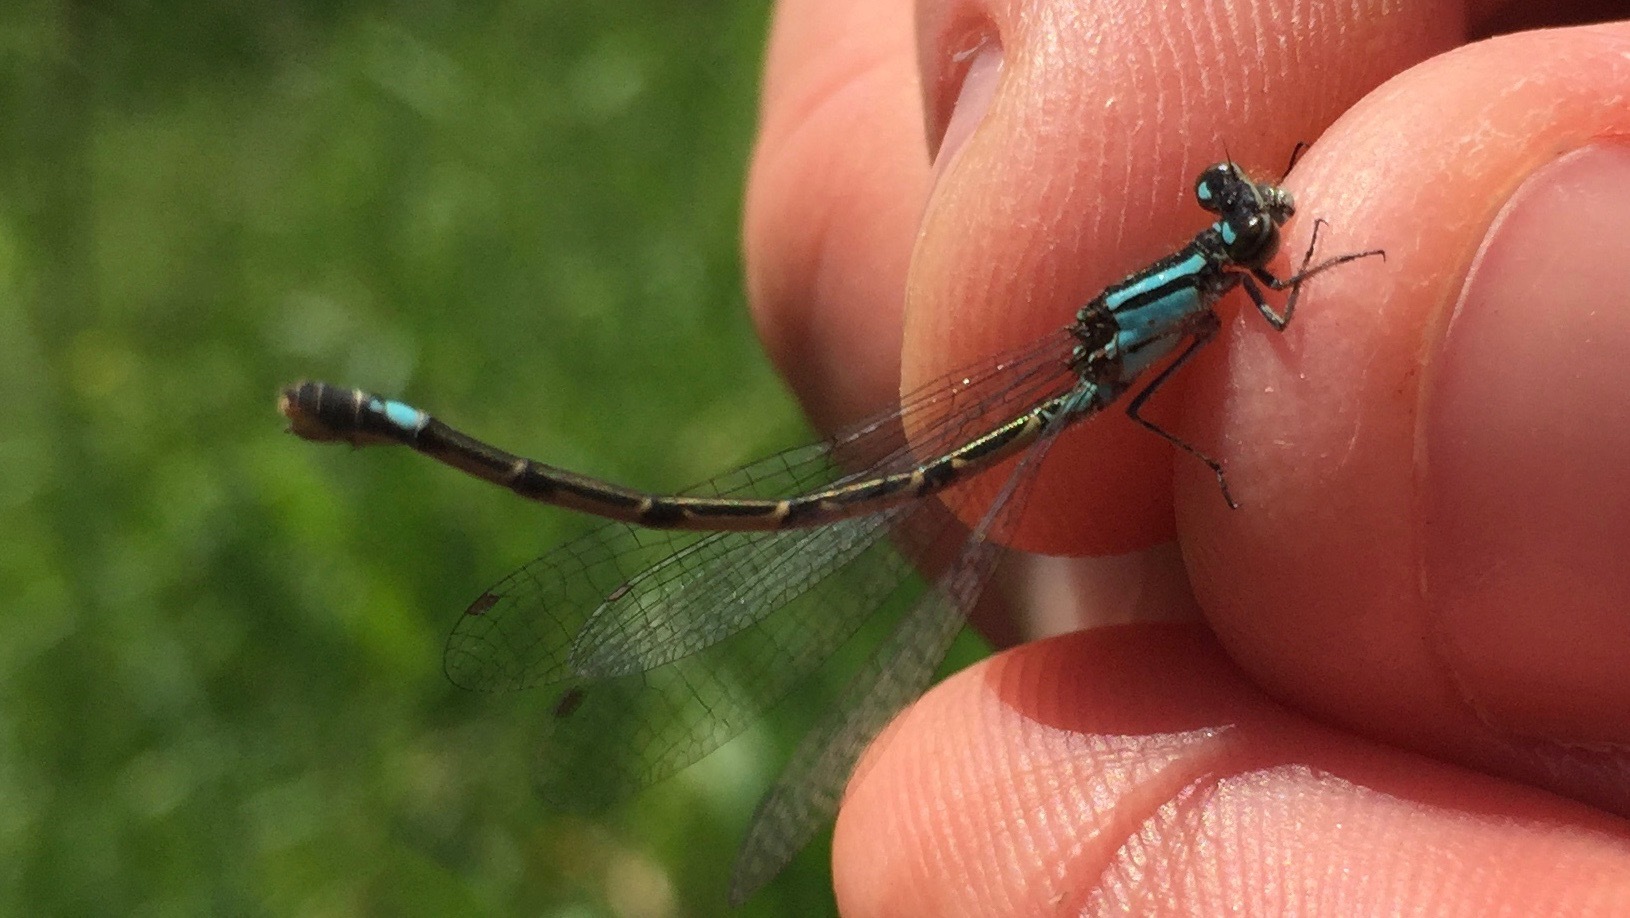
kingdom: Animalia
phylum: Arthropoda
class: Insecta
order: Odonata
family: Coenagrionidae
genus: Enallagma
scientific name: Enallagma geminatum
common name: Skimming bluet
